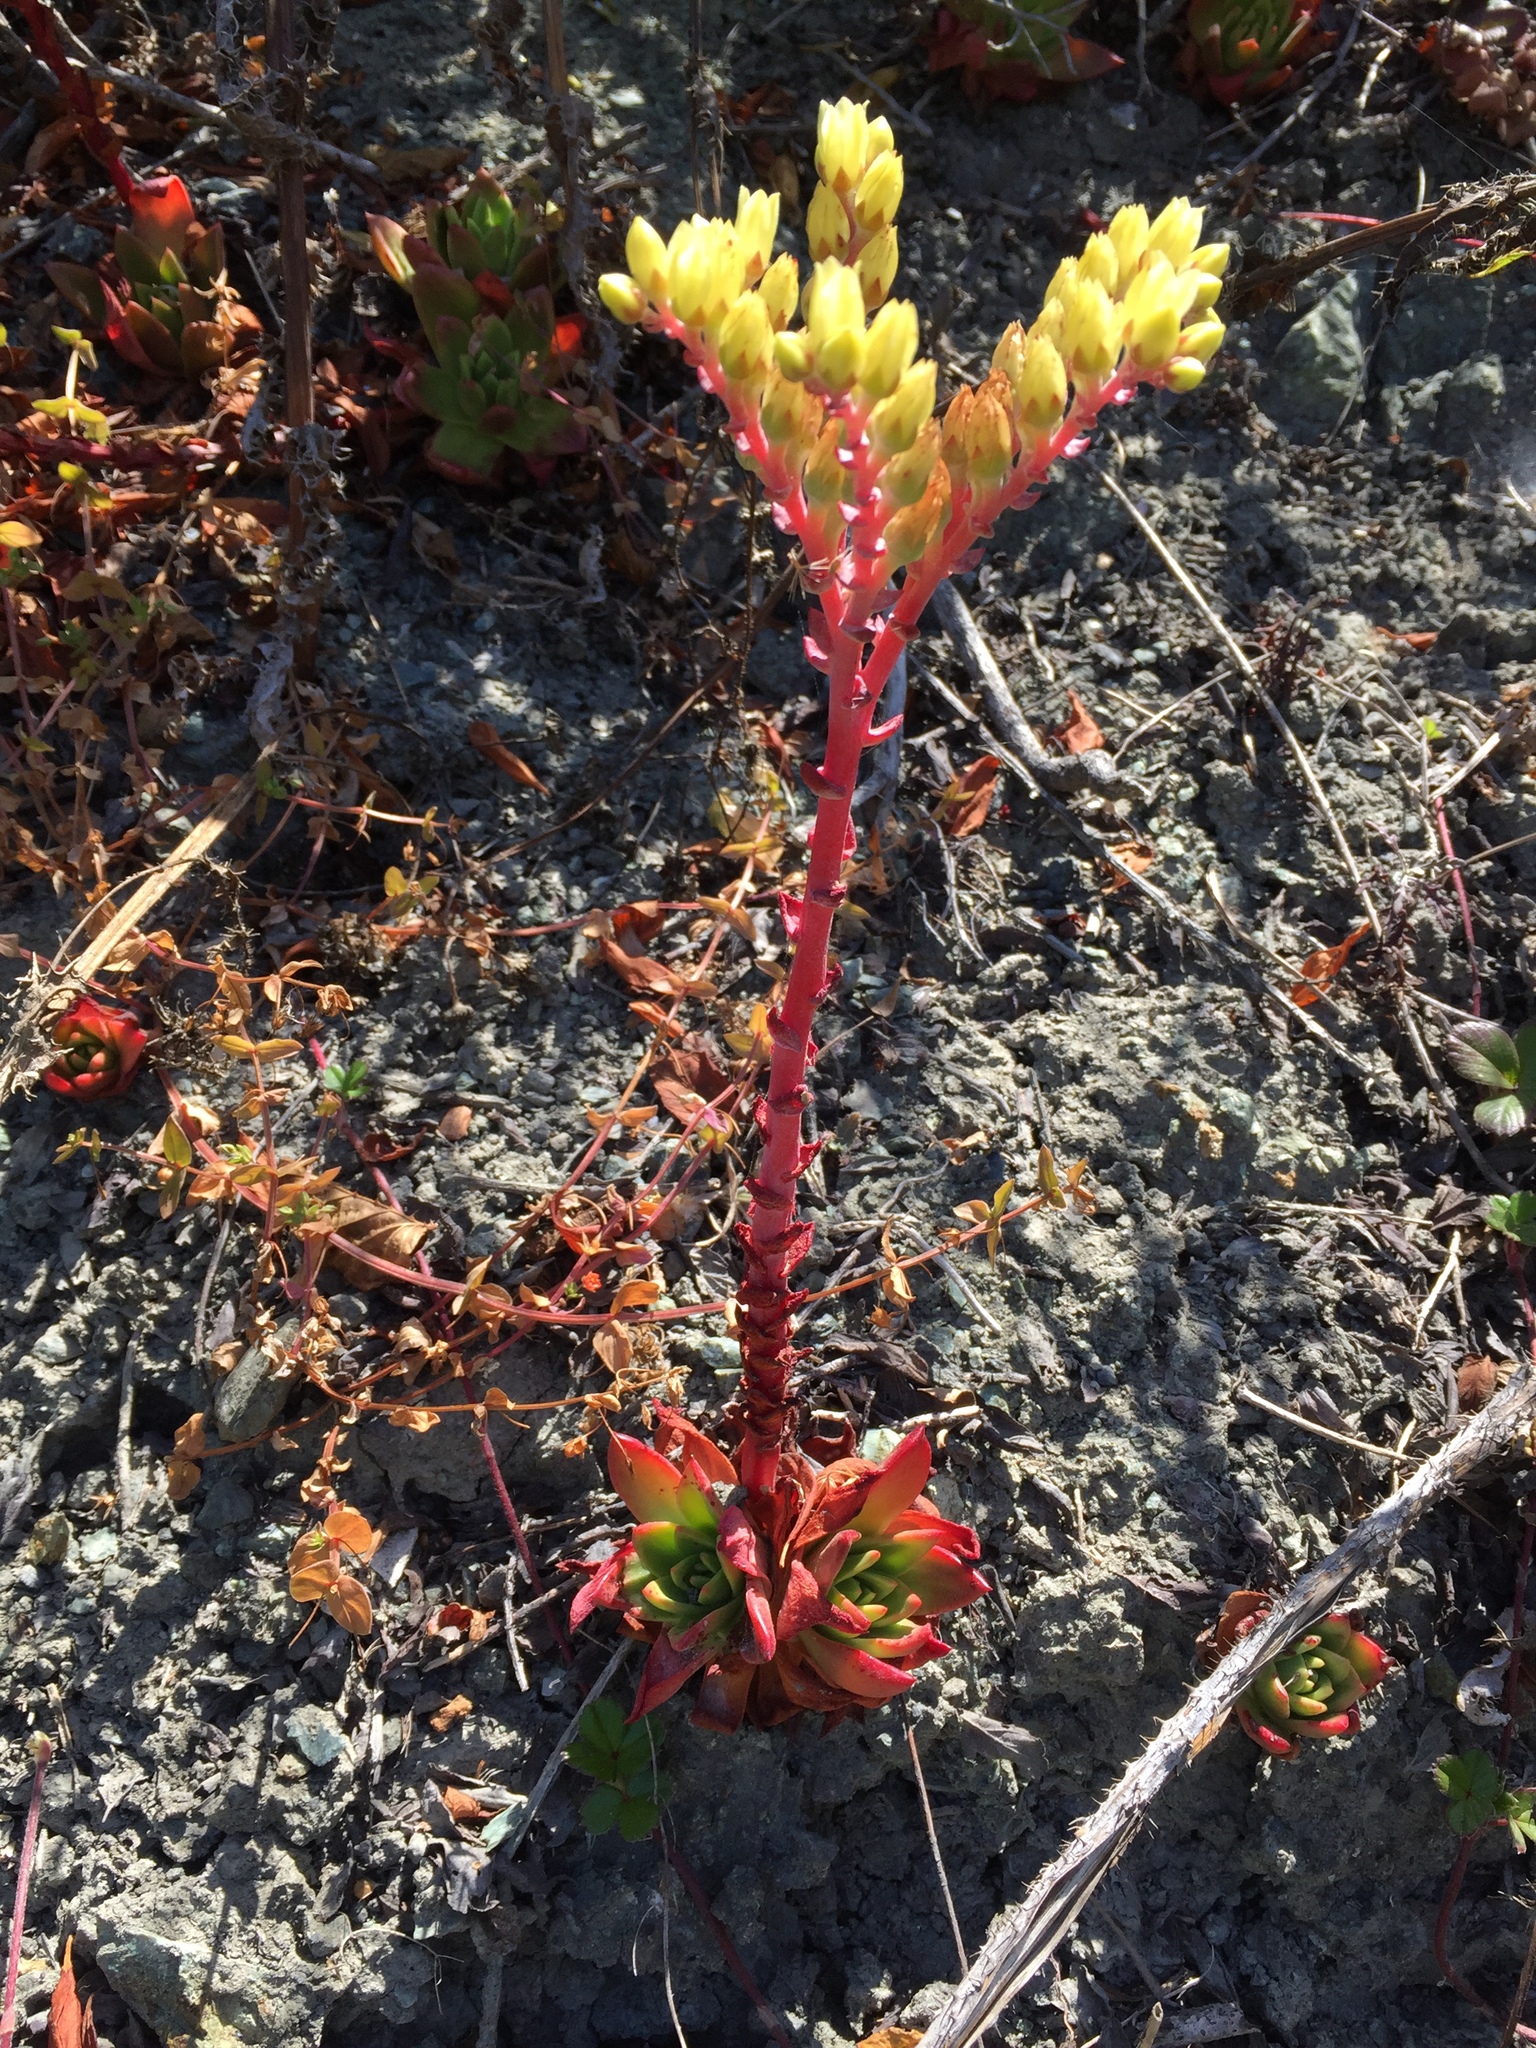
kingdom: Plantae
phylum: Tracheophyta
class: Magnoliopsida
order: Saxifragales
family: Crassulaceae
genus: Dudleya
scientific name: Dudleya farinosa
